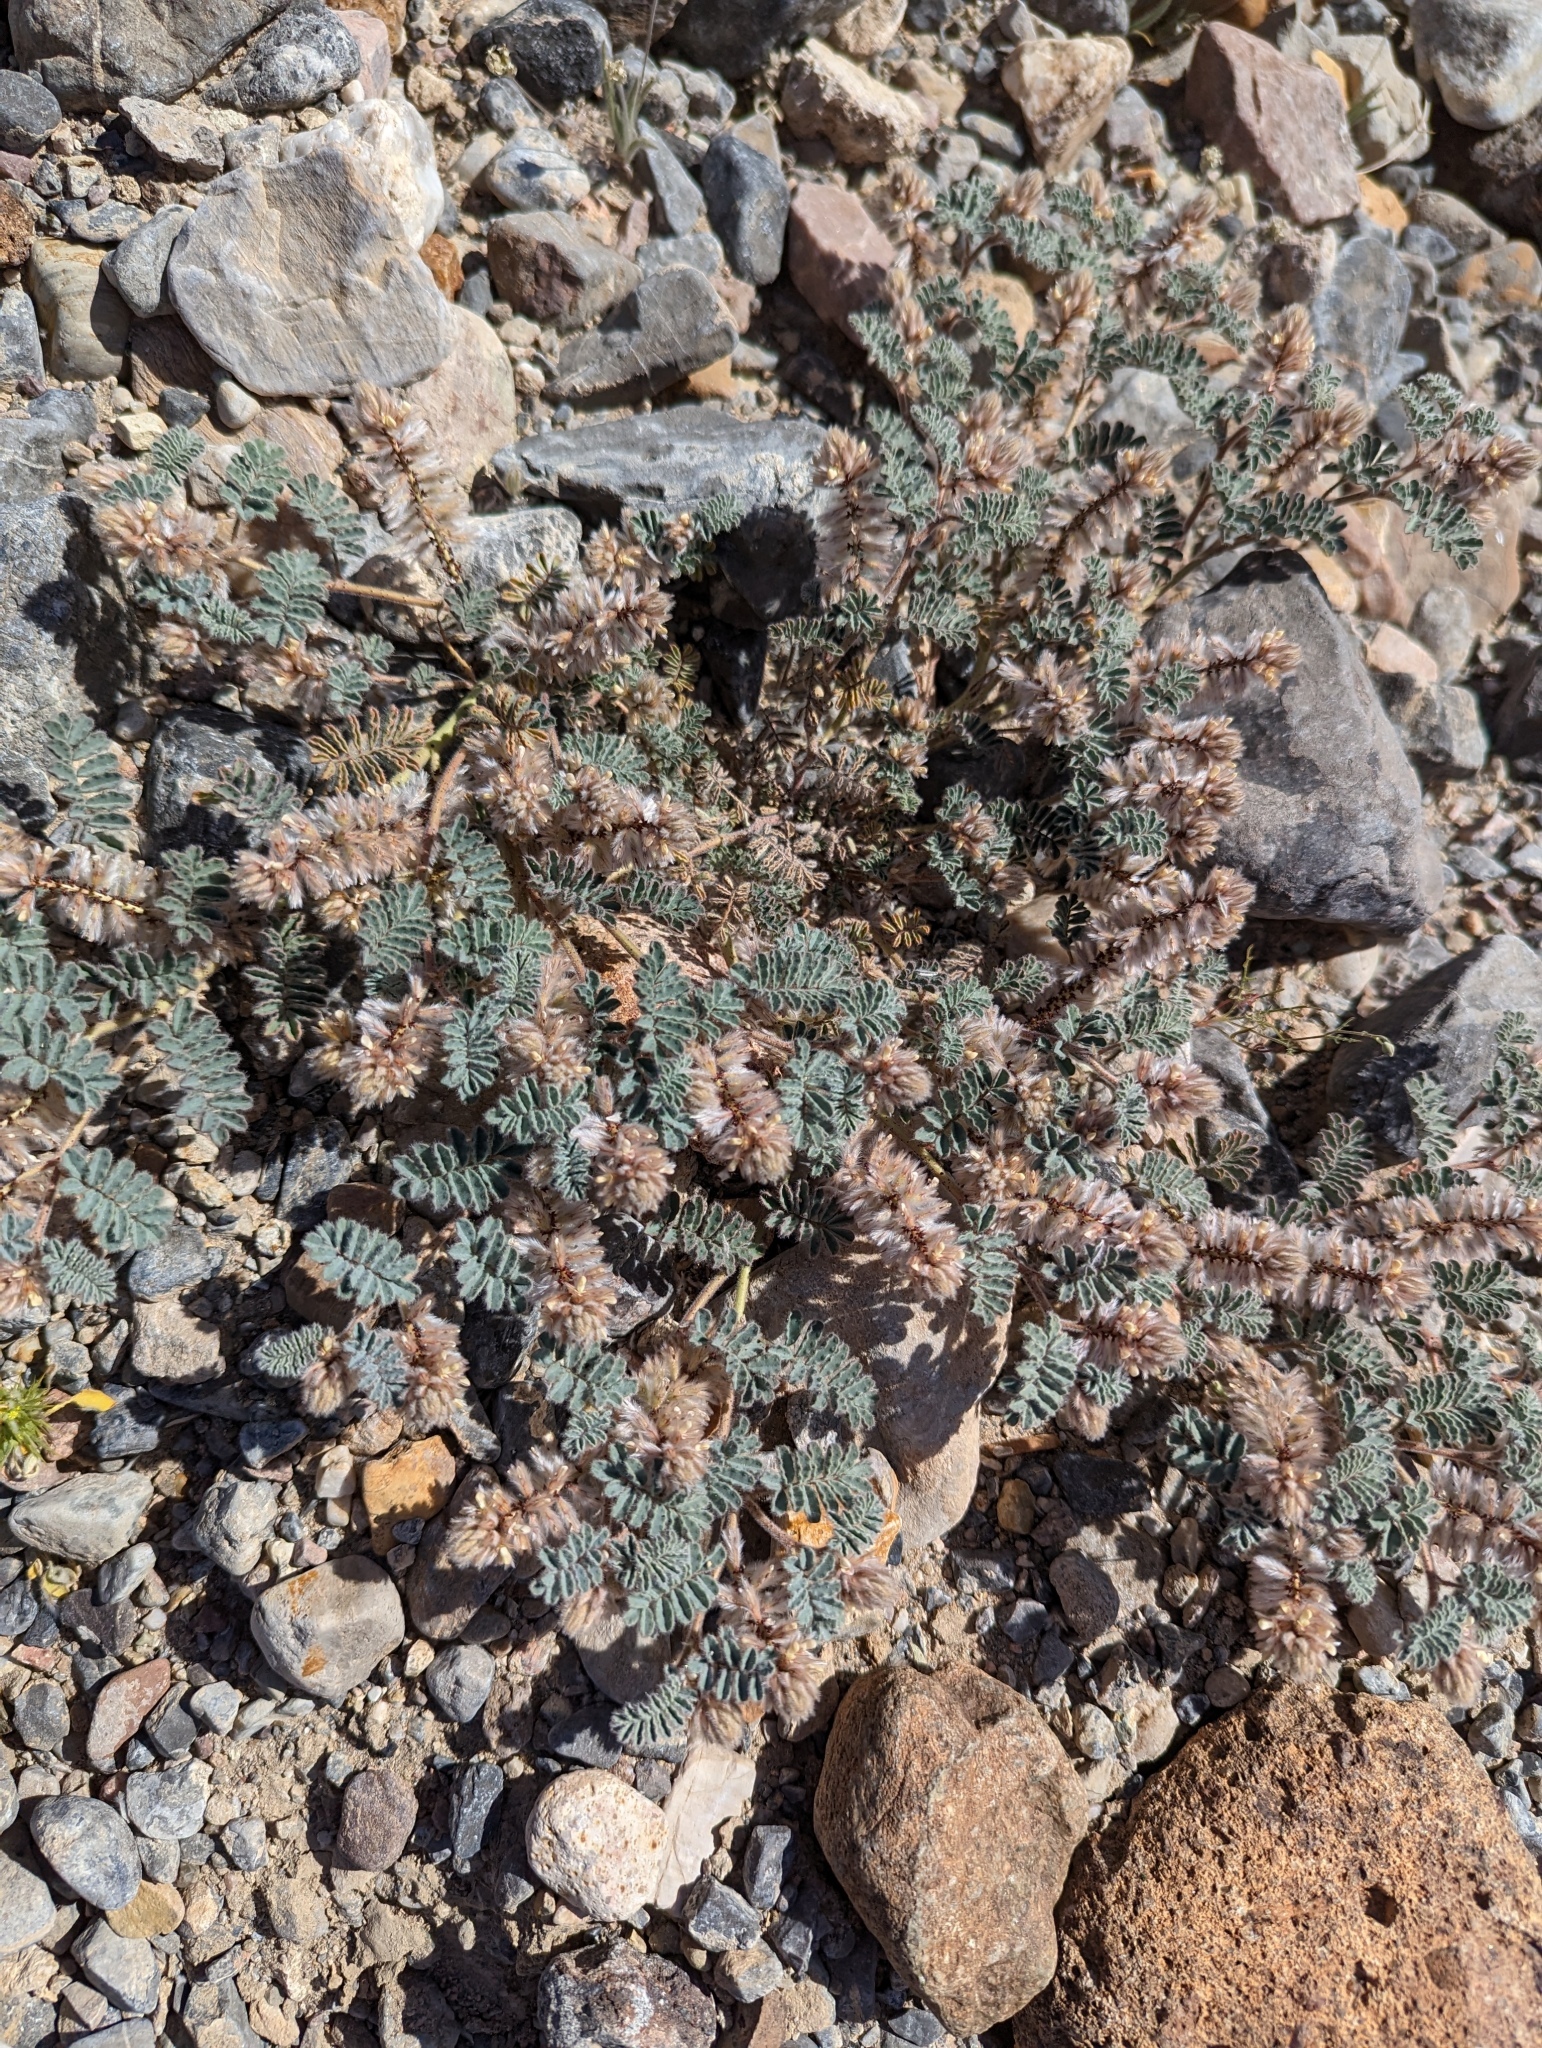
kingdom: Plantae
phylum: Tracheophyta
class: Magnoliopsida
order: Fabales
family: Fabaceae
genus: Dalea
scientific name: Dalea mollissima
